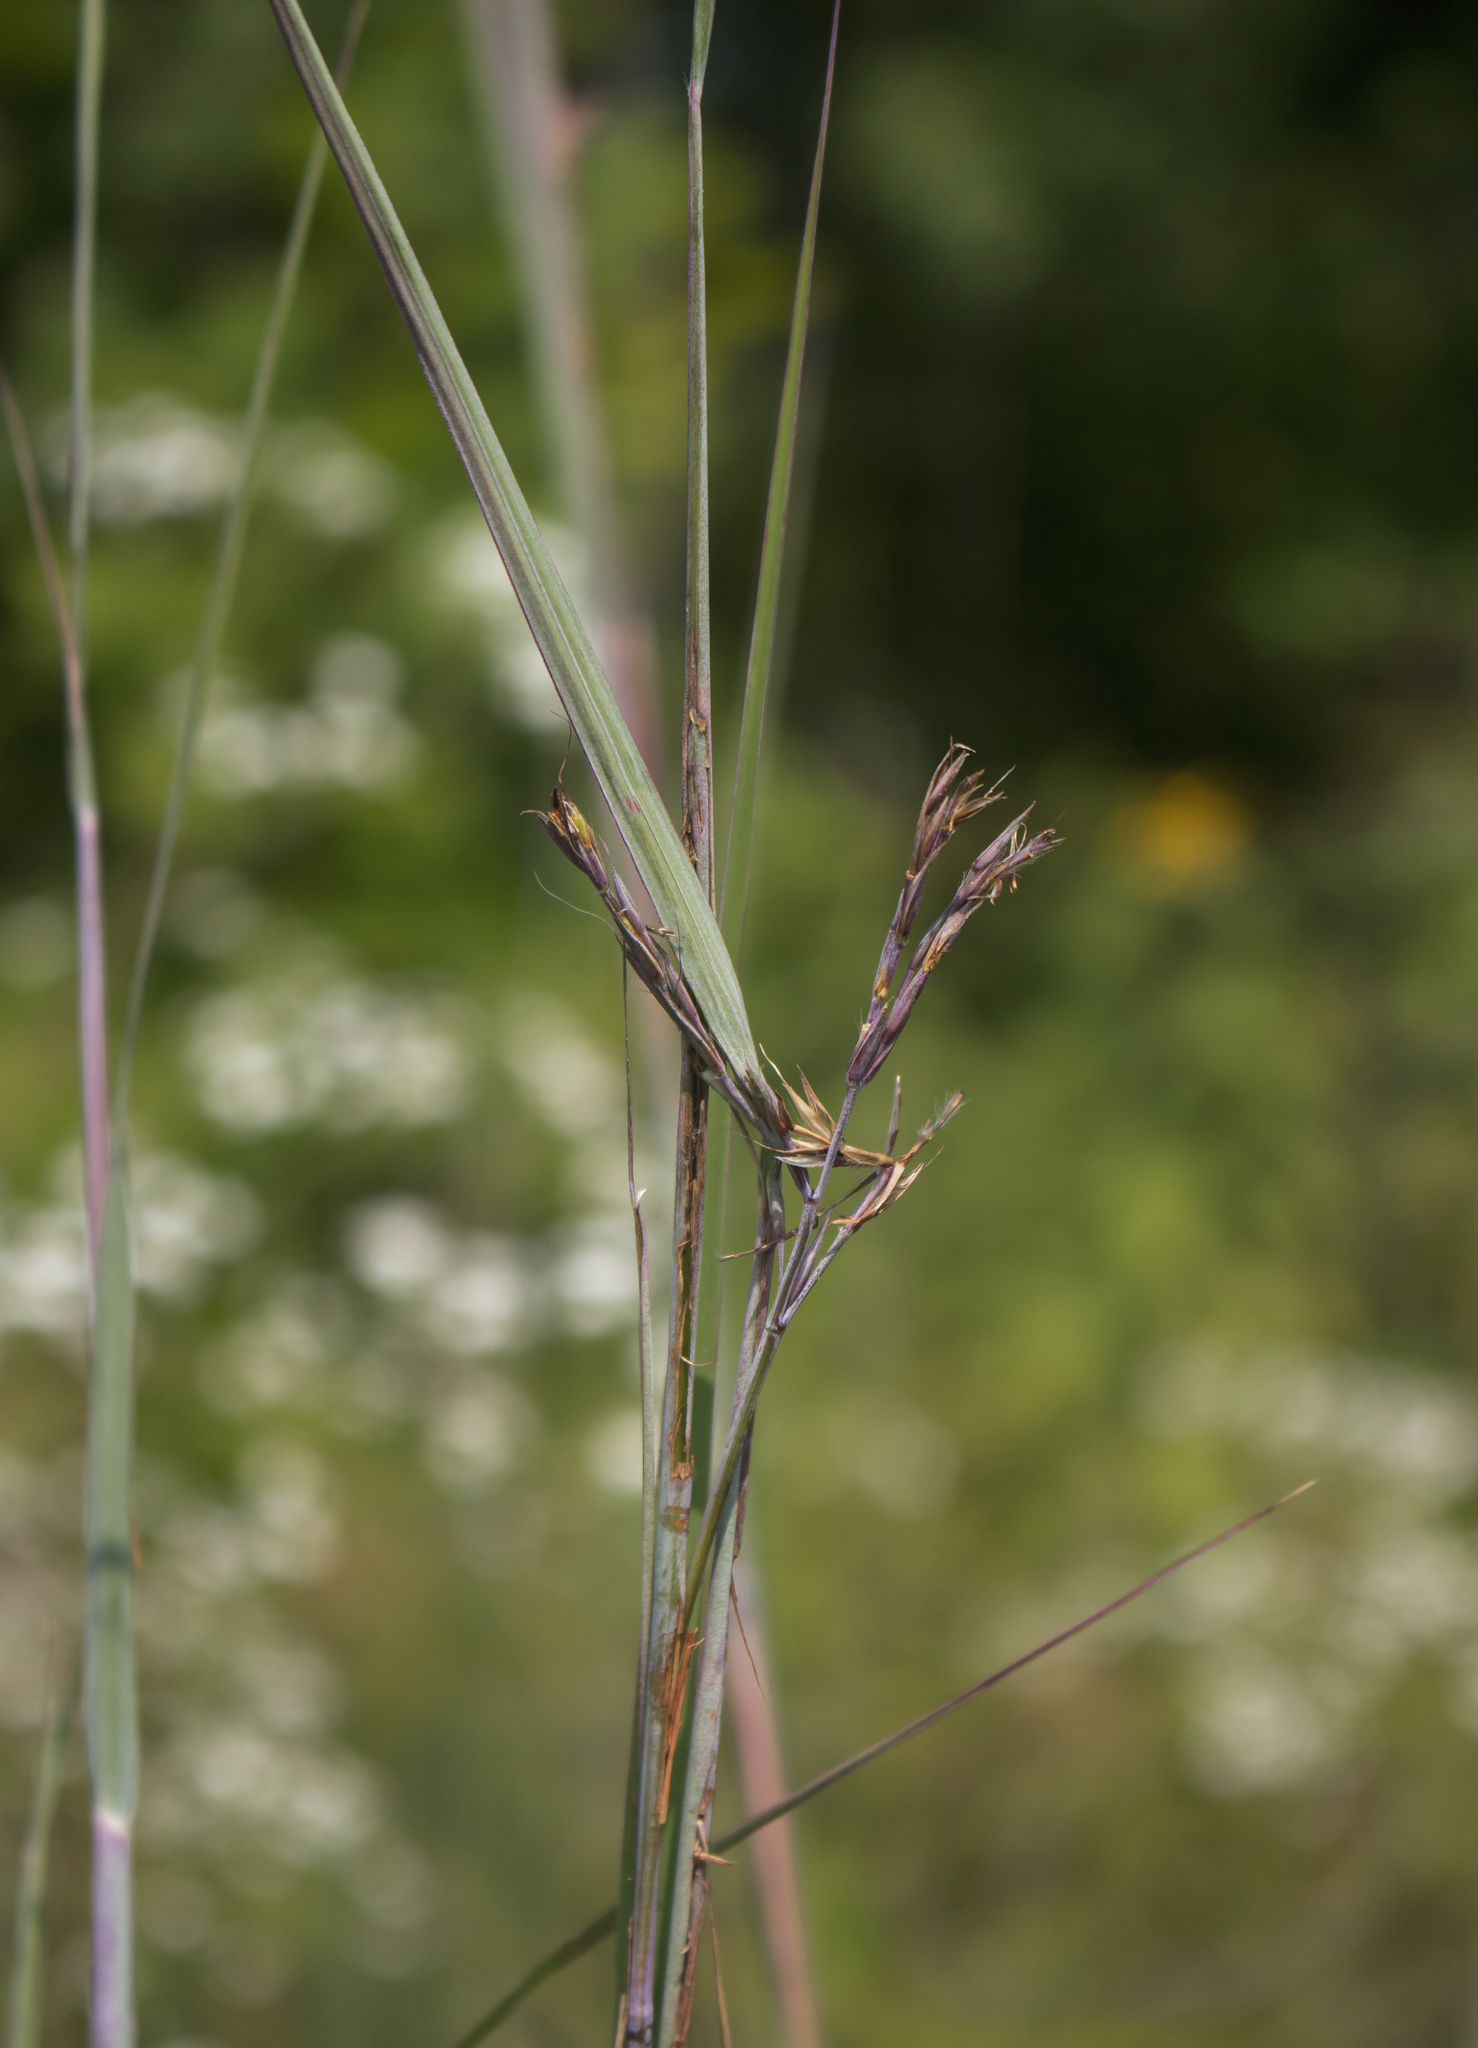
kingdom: Plantae
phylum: Tracheophyta
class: Liliopsida
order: Poales
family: Poaceae
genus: Andropogon
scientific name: Andropogon gerardi
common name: Big bluestem
